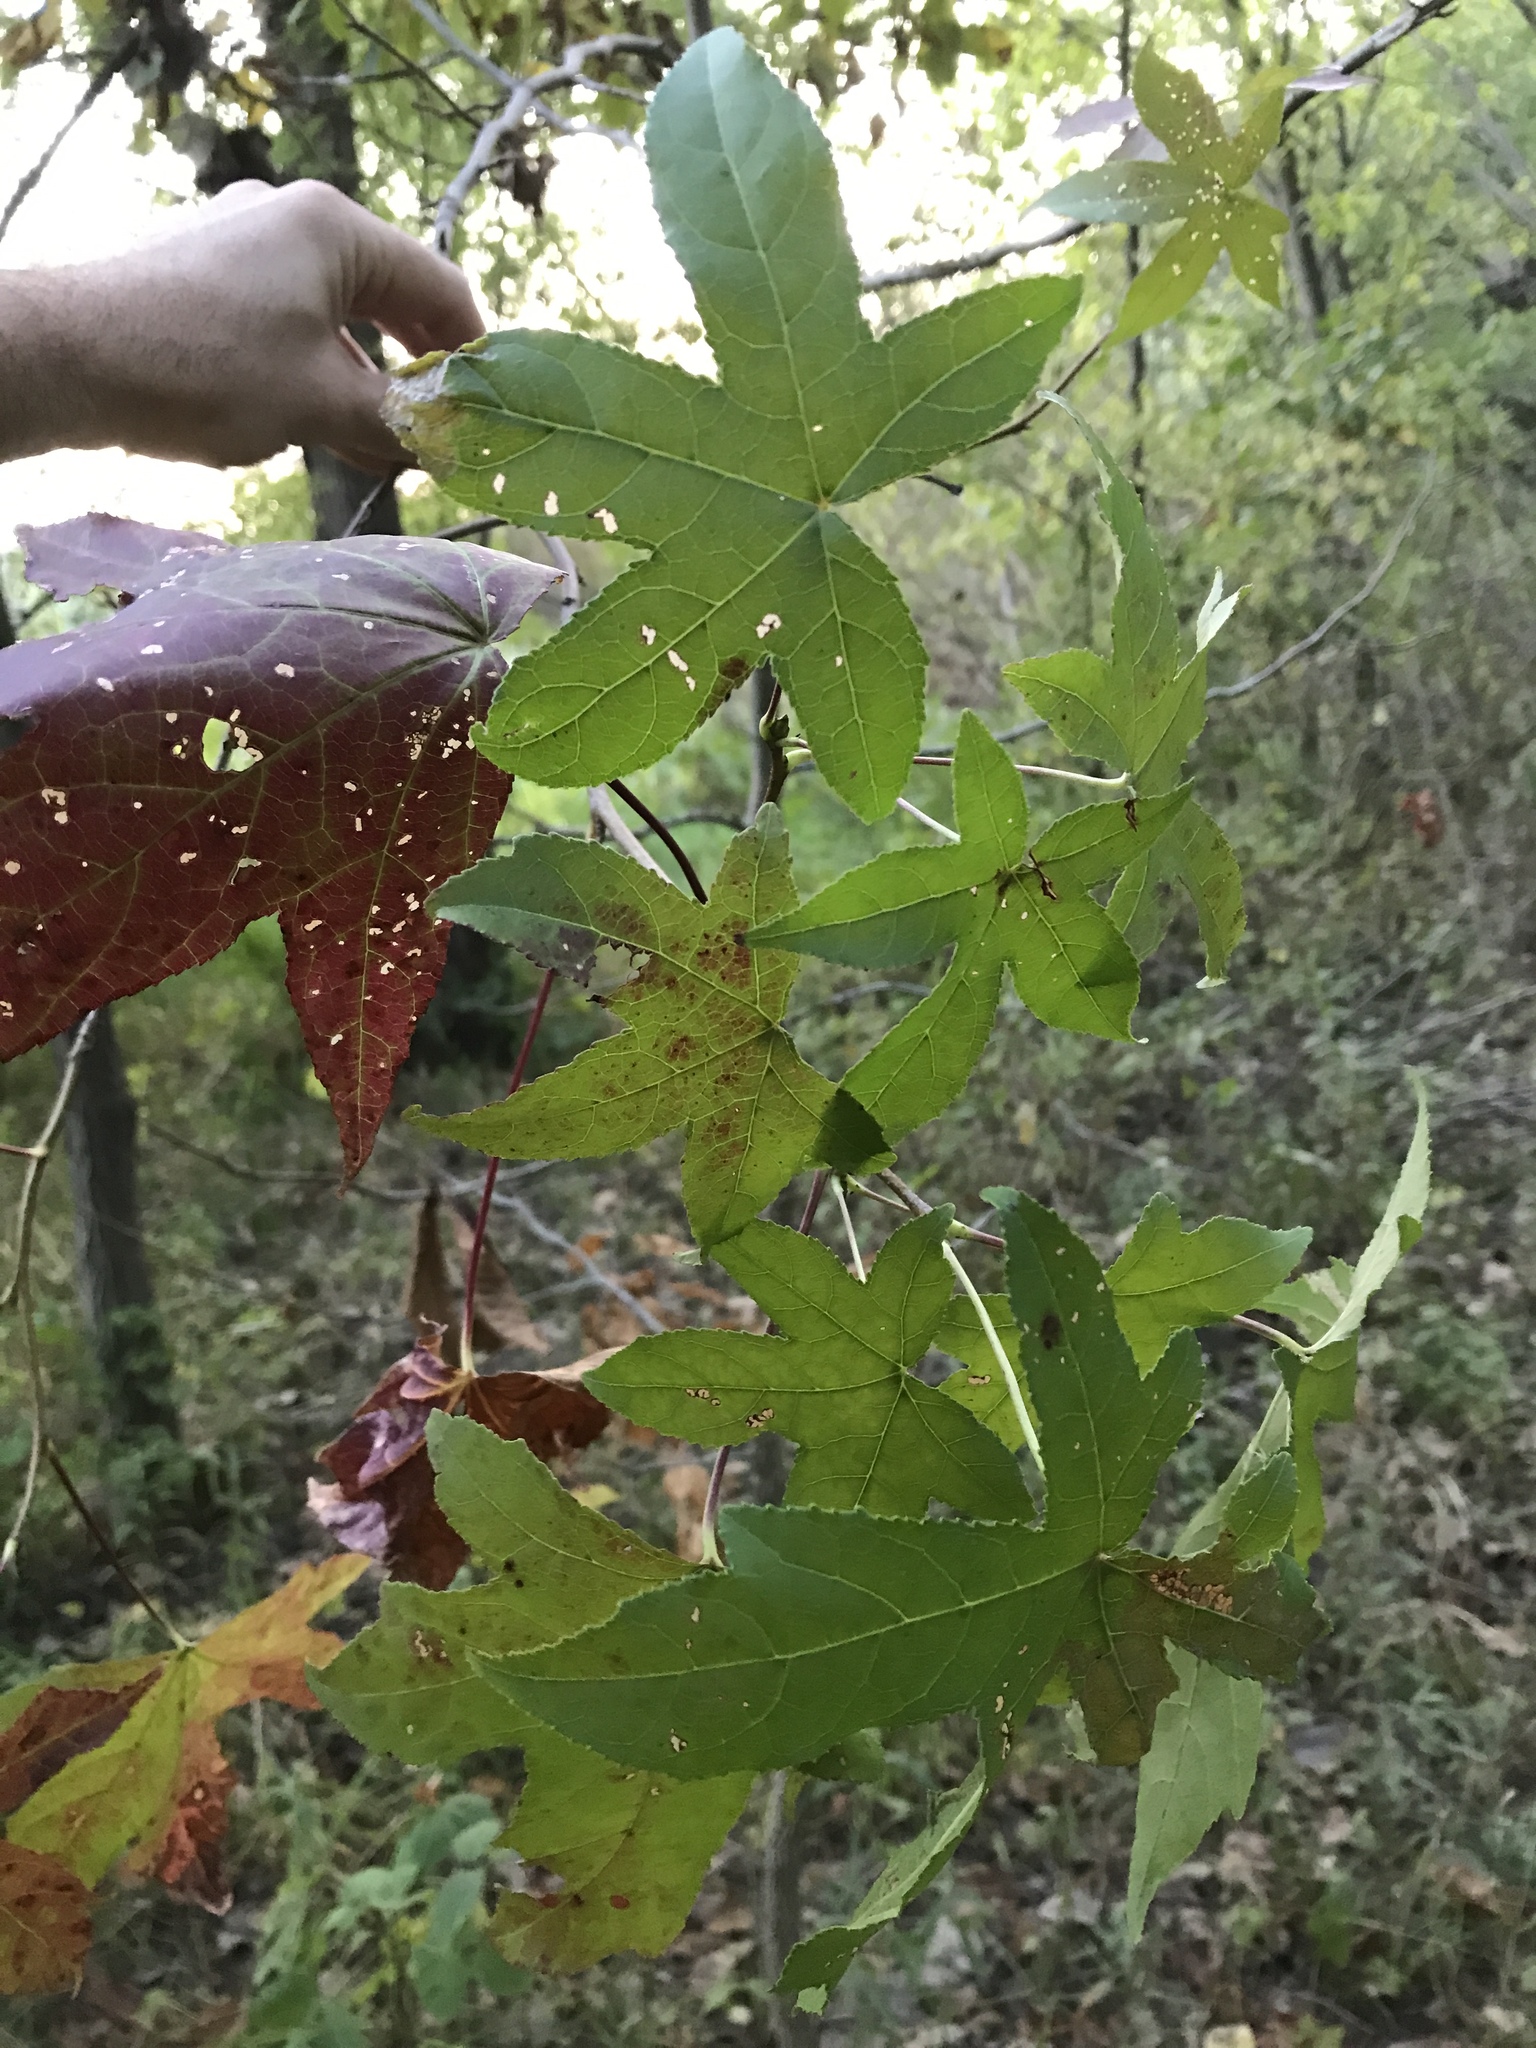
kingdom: Plantae
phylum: Tracheophyta
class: Magnoliopsida
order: Saxifragales
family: Altingiaceae
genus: Liquidambar
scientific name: Liquidambar styraciflua
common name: Sweet gum
